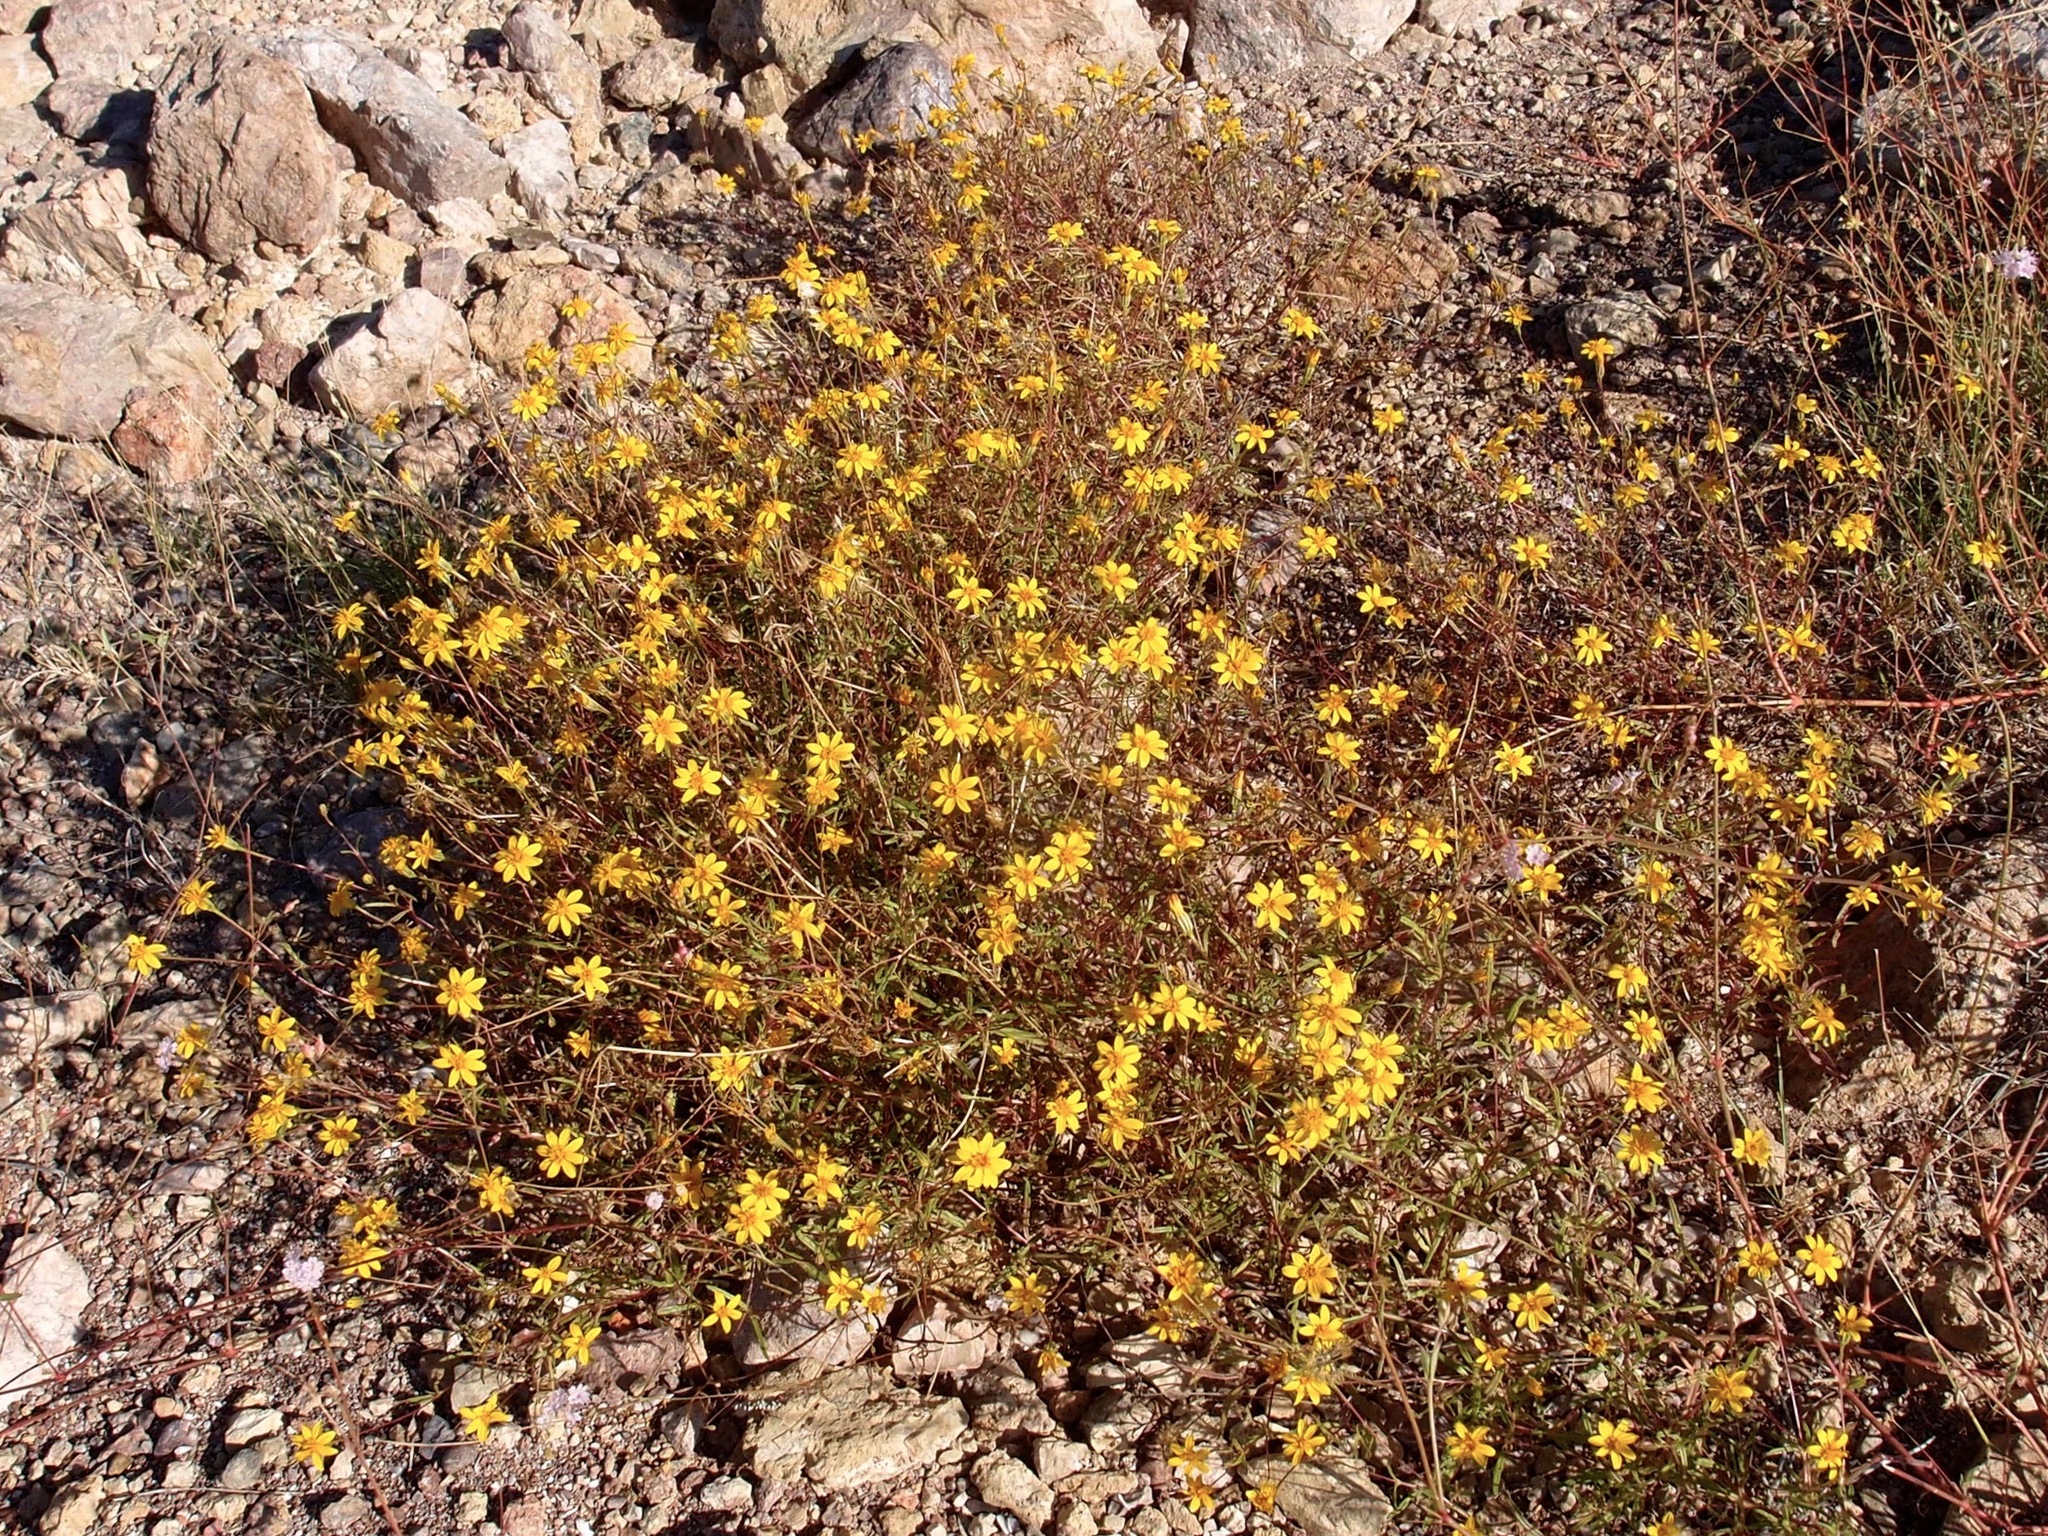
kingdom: Plantae
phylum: Tracheophyta
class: Magnoliopsida
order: Asterales
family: Asteraceae
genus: Pectis
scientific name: Pectis rusbyi
